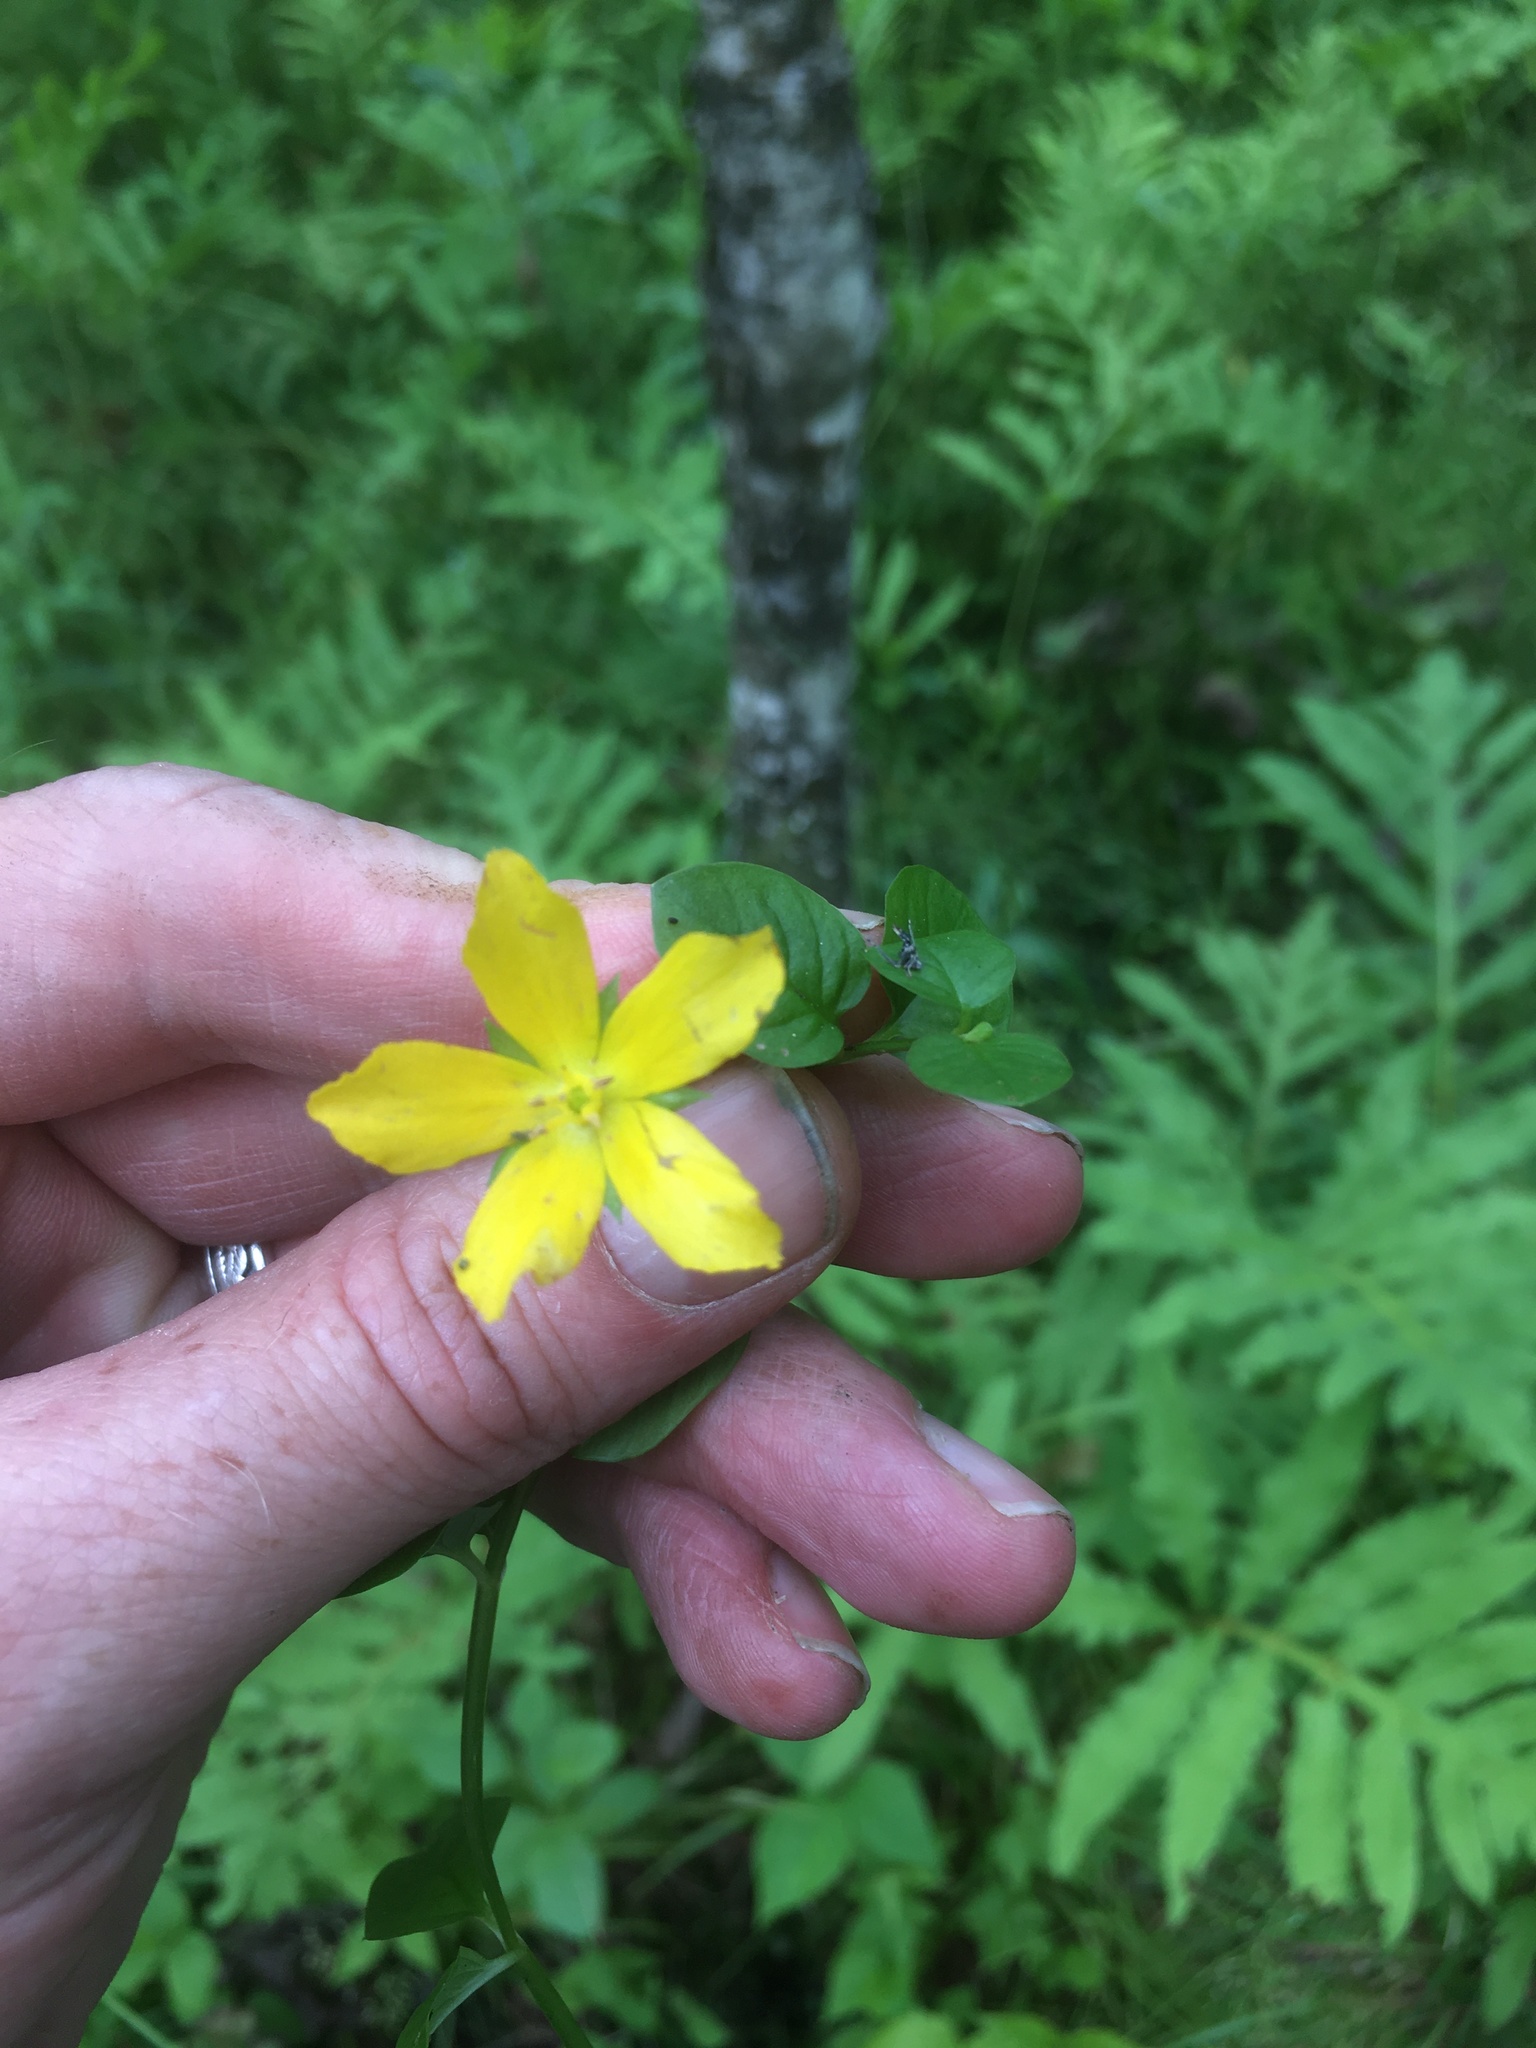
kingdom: Plantae
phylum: Tracheophyta
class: Magnoliopsida
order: Ericales
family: Primulaceae
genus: Lysimachia
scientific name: Lysimachia nummularia
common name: Moneywort
